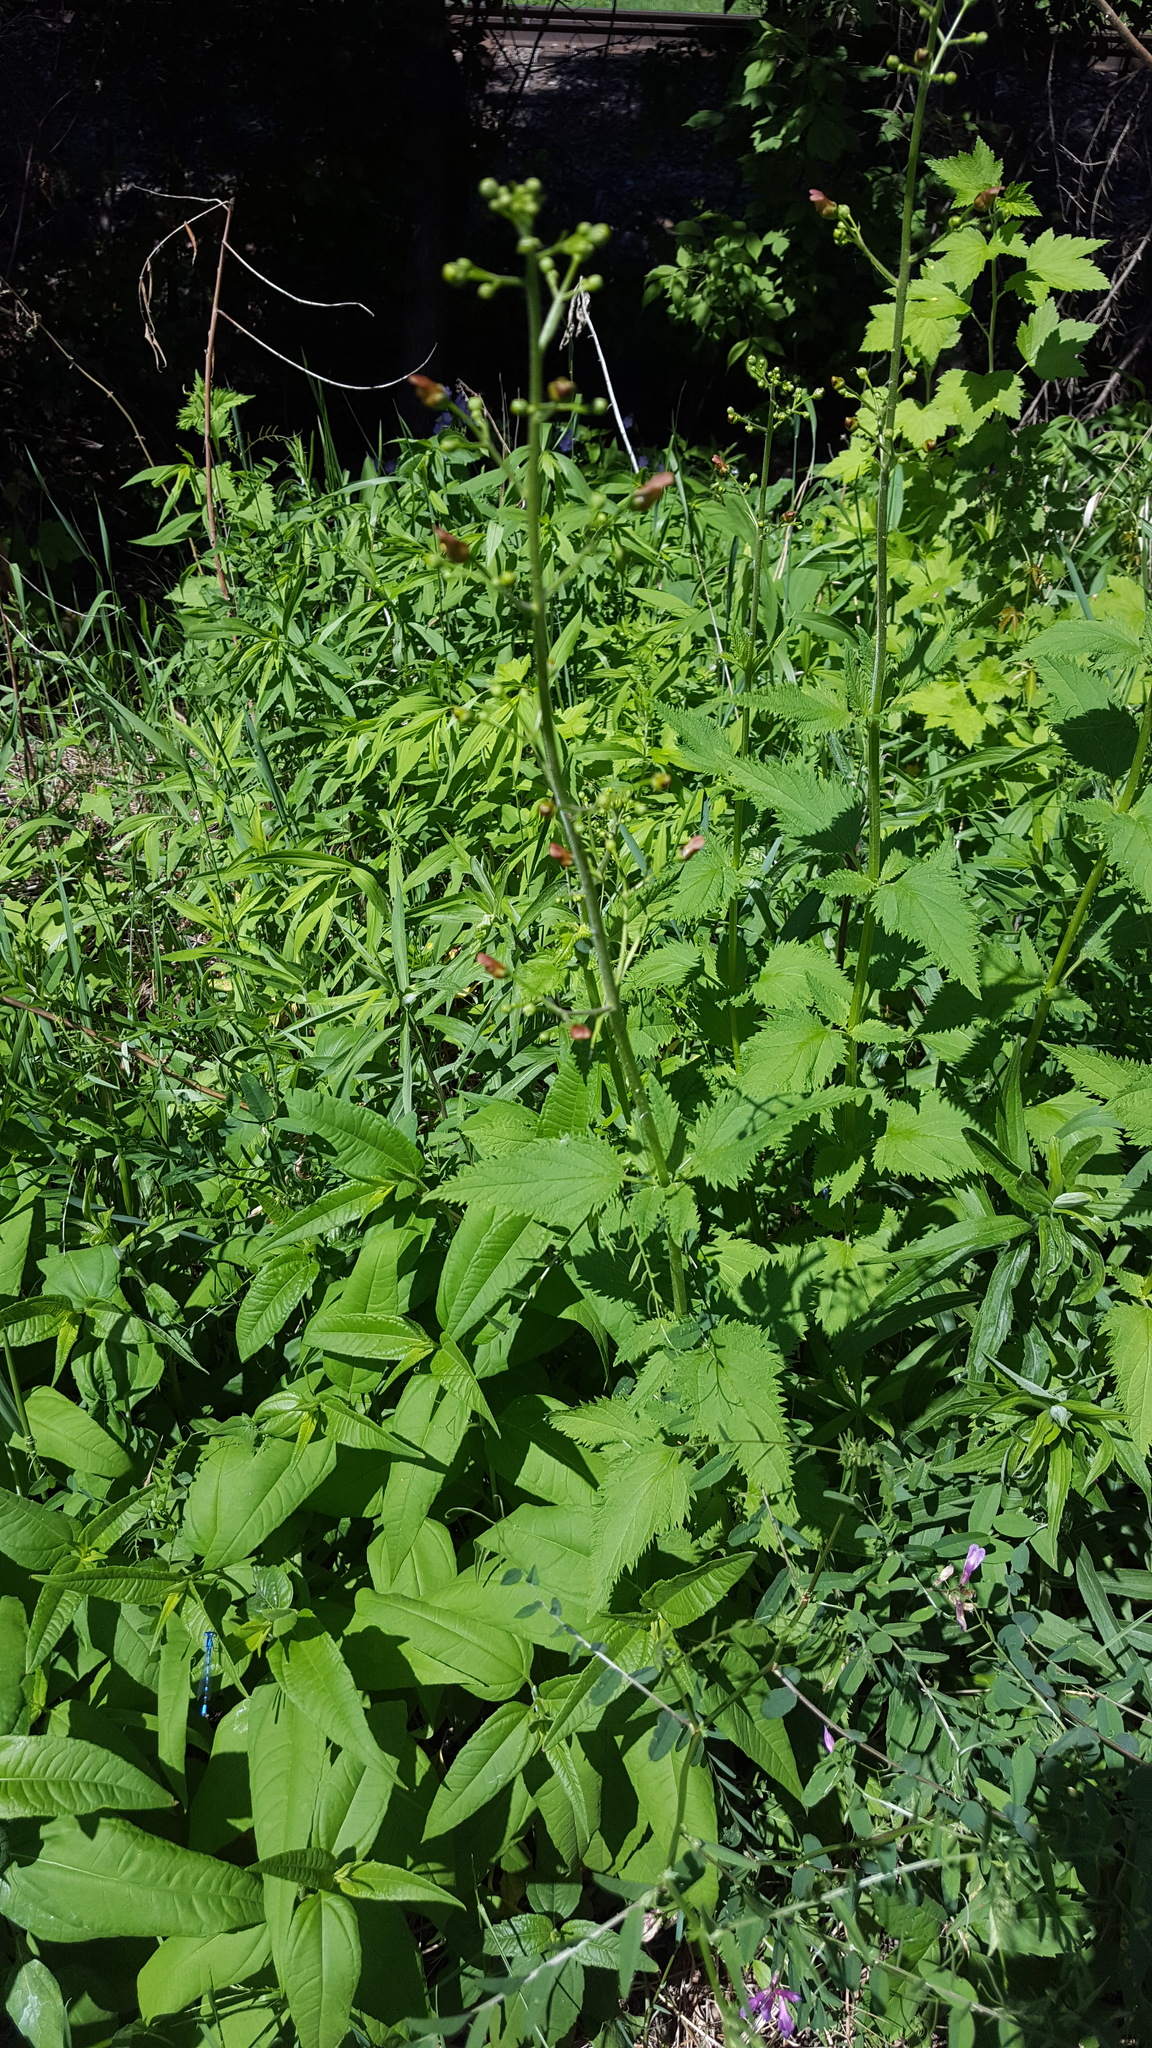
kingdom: Plantae
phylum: Tracheophyta
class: Magnoliopsida
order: Lamiales
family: Scrophulariaceae
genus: Scrophularia
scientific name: Scrophularia lanceolata
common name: American figwort
